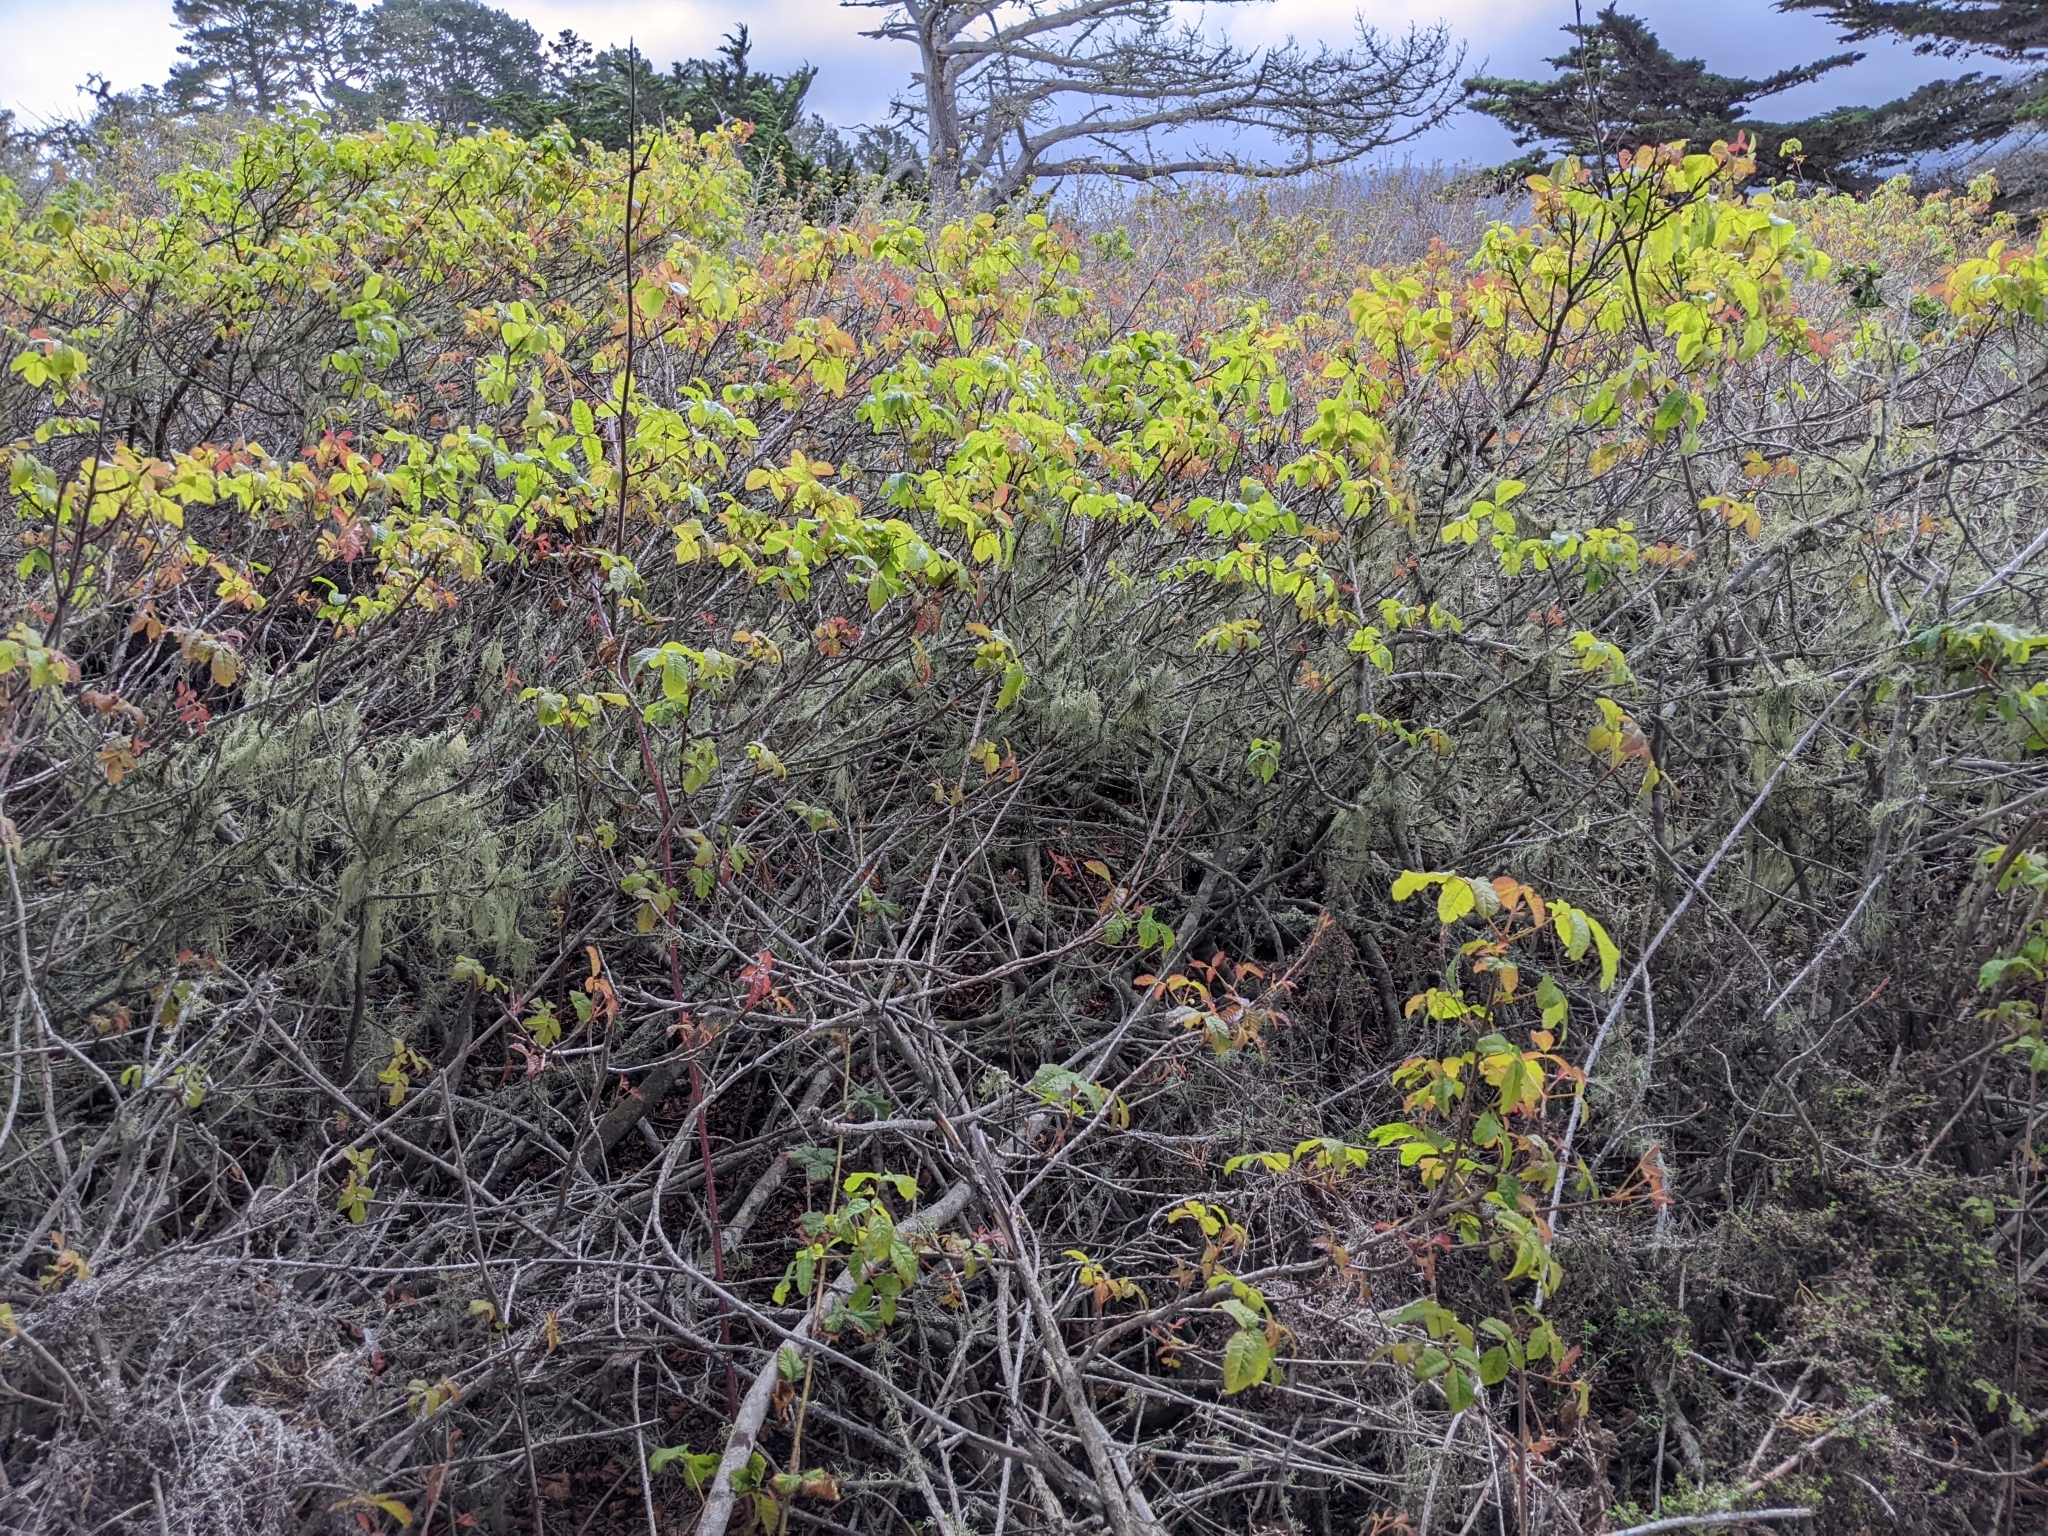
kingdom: Plantae
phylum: Tracheophyta
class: Magnoliopsida
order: Sapindales
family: Anacardiaceae
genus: Toxicodendron
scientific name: Toxicodendron diversilobum
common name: Pacific poison-oak
